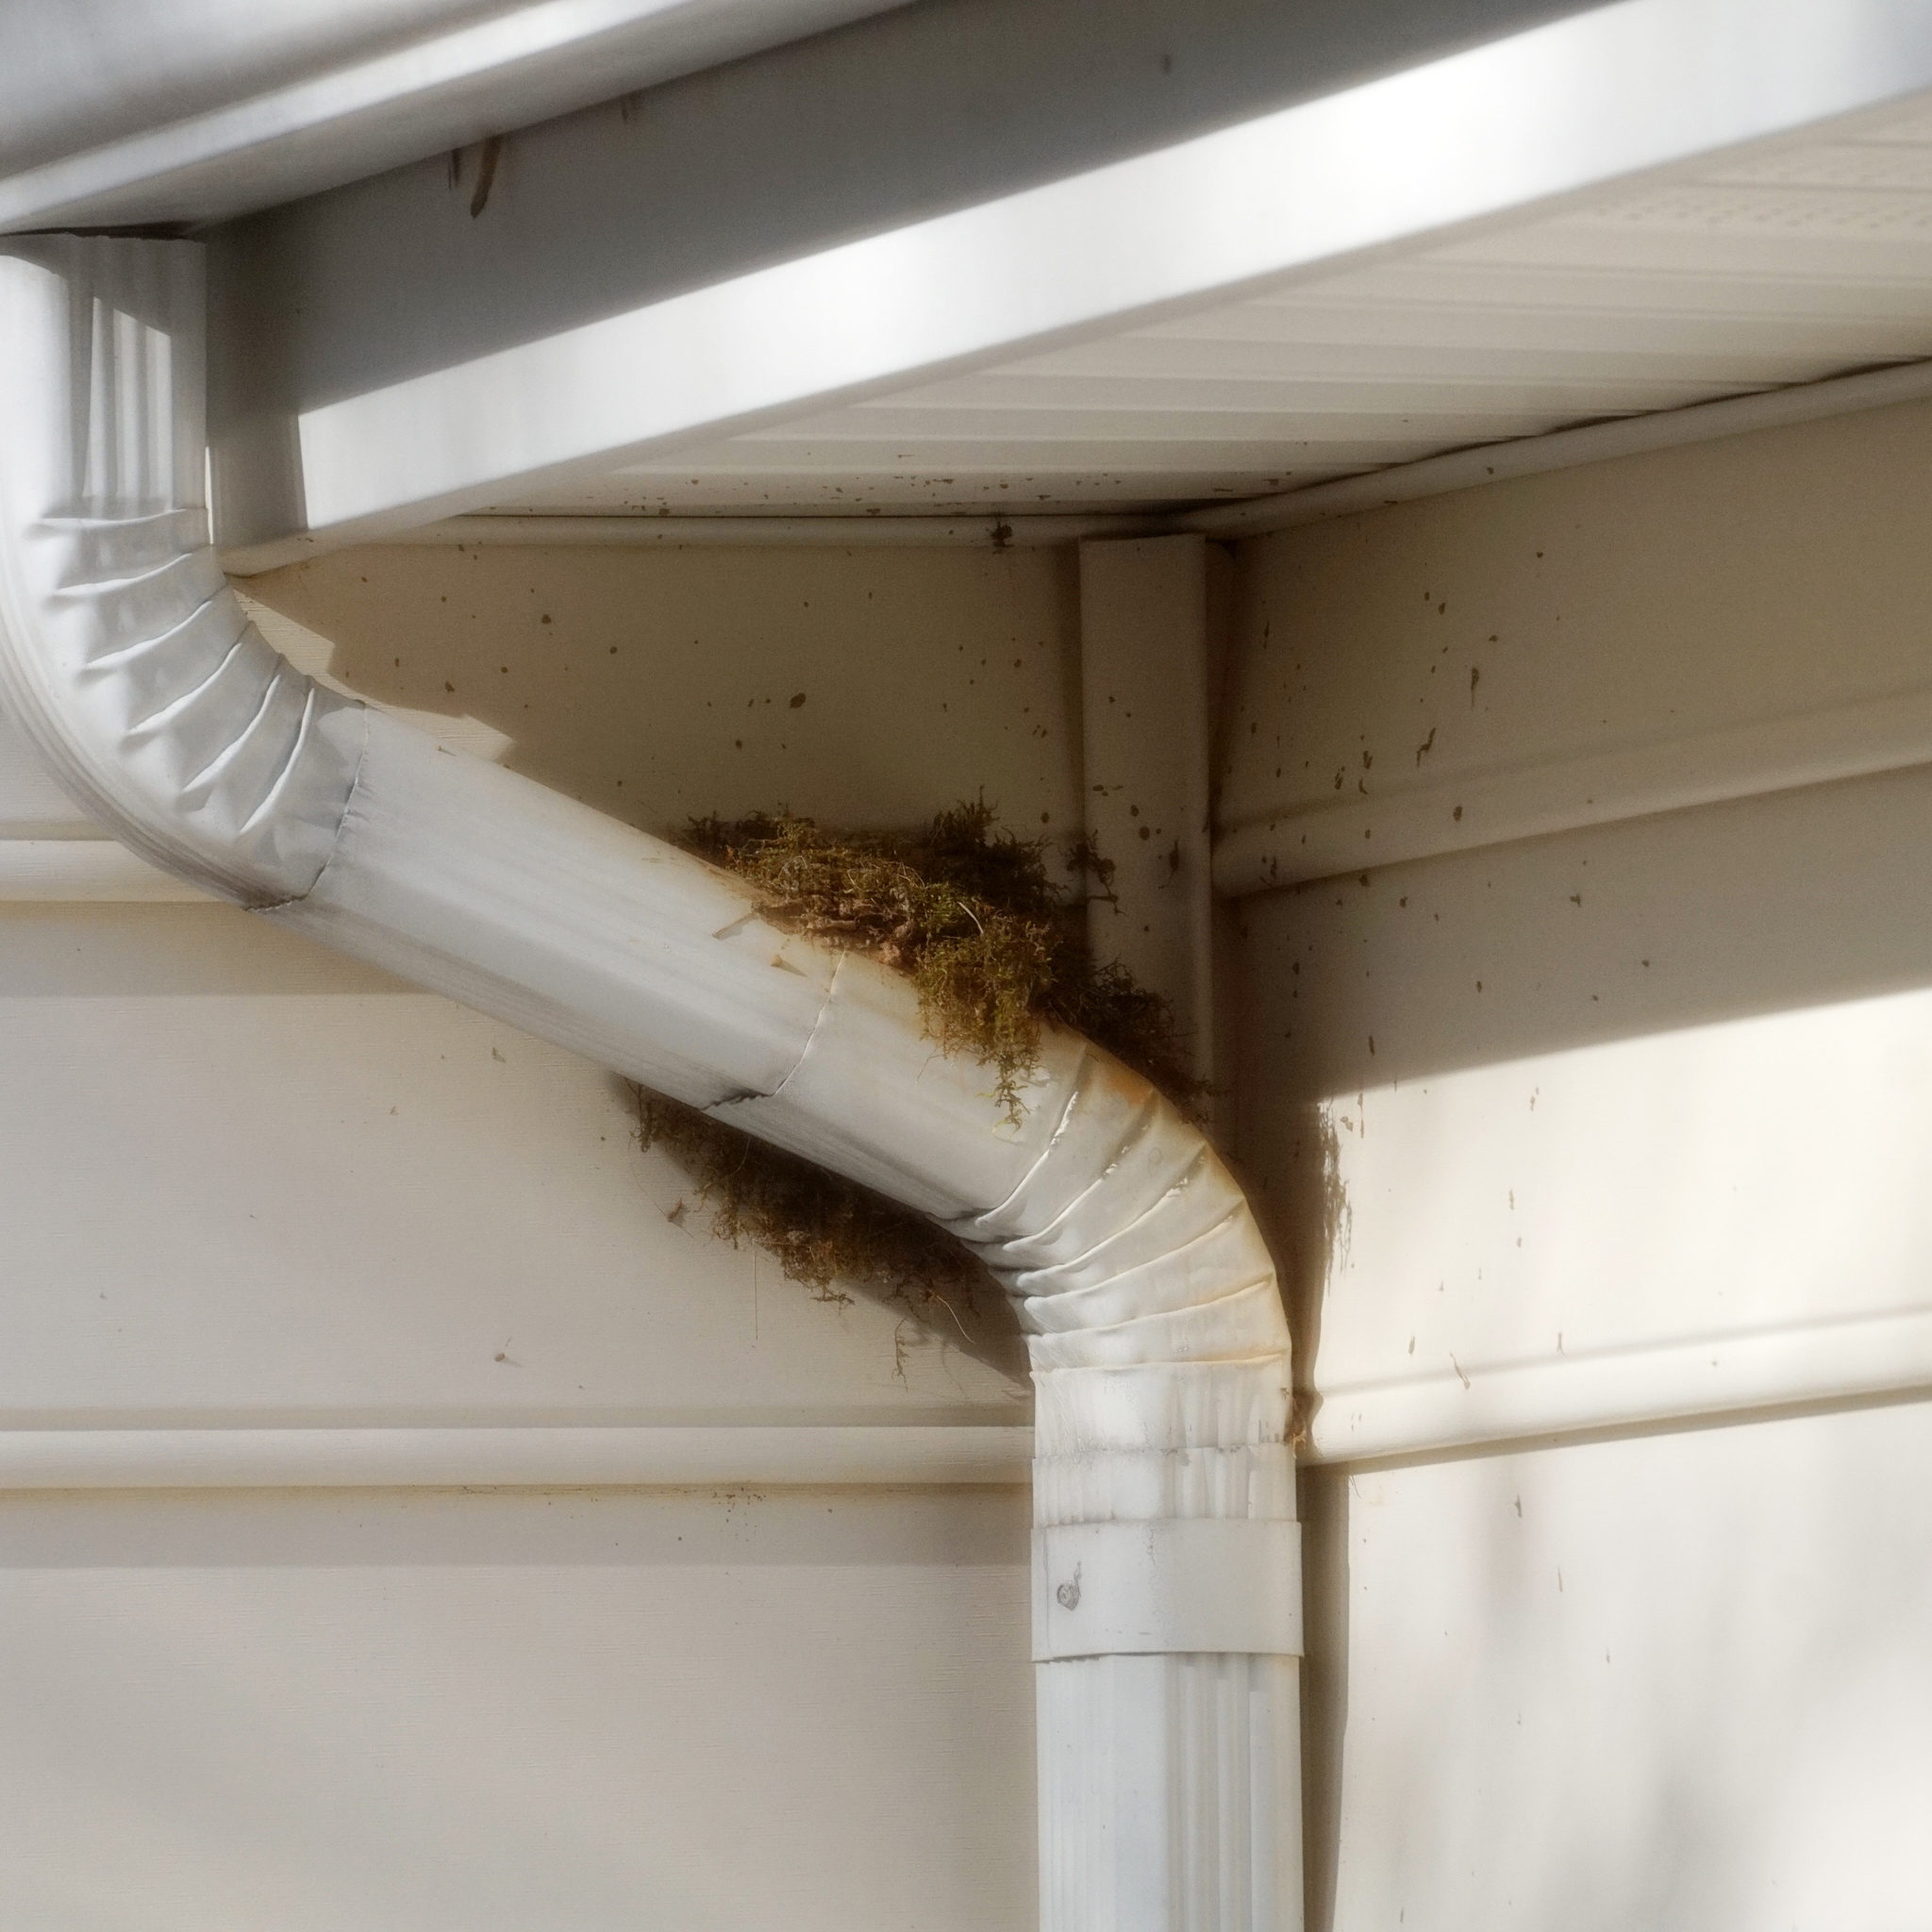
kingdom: Animalia
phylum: Chordata
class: Aves
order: Passeriformes
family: Tyrannidae
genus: Sayornis
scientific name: Sayornis phoebe
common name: Eastern phoebe
